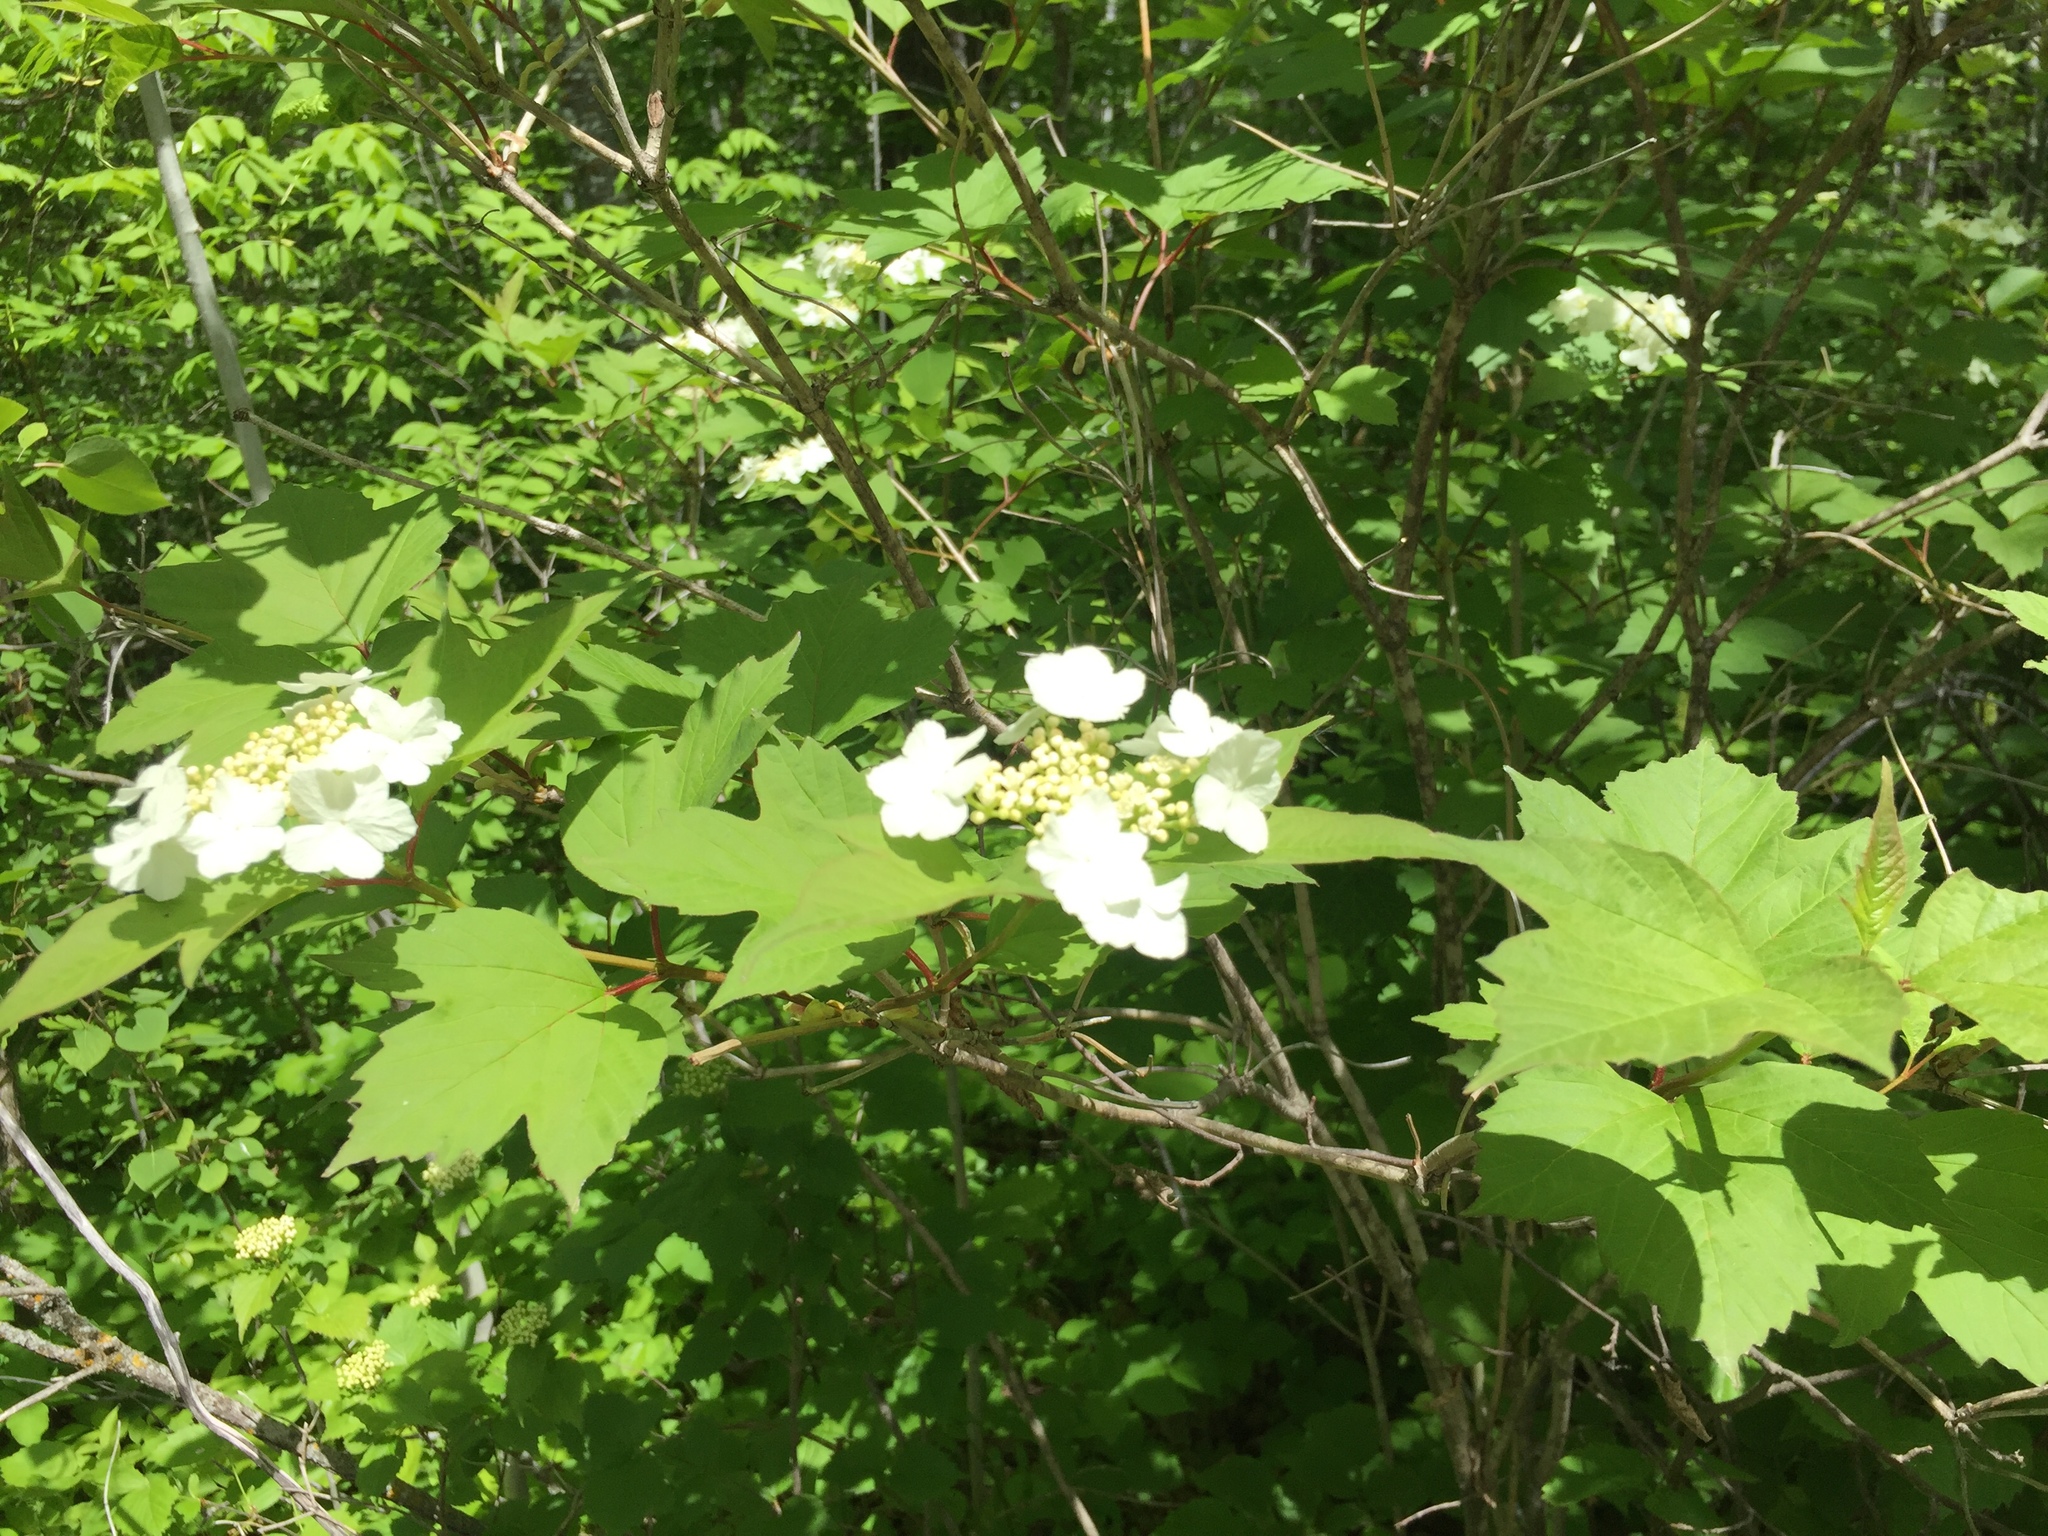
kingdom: Plantae
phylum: Tracheophyta
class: Magnoliopsida
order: Dipsacales
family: Viburnaceae
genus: Viburnum
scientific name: Viburnum trilobum
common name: American cranberrybush
